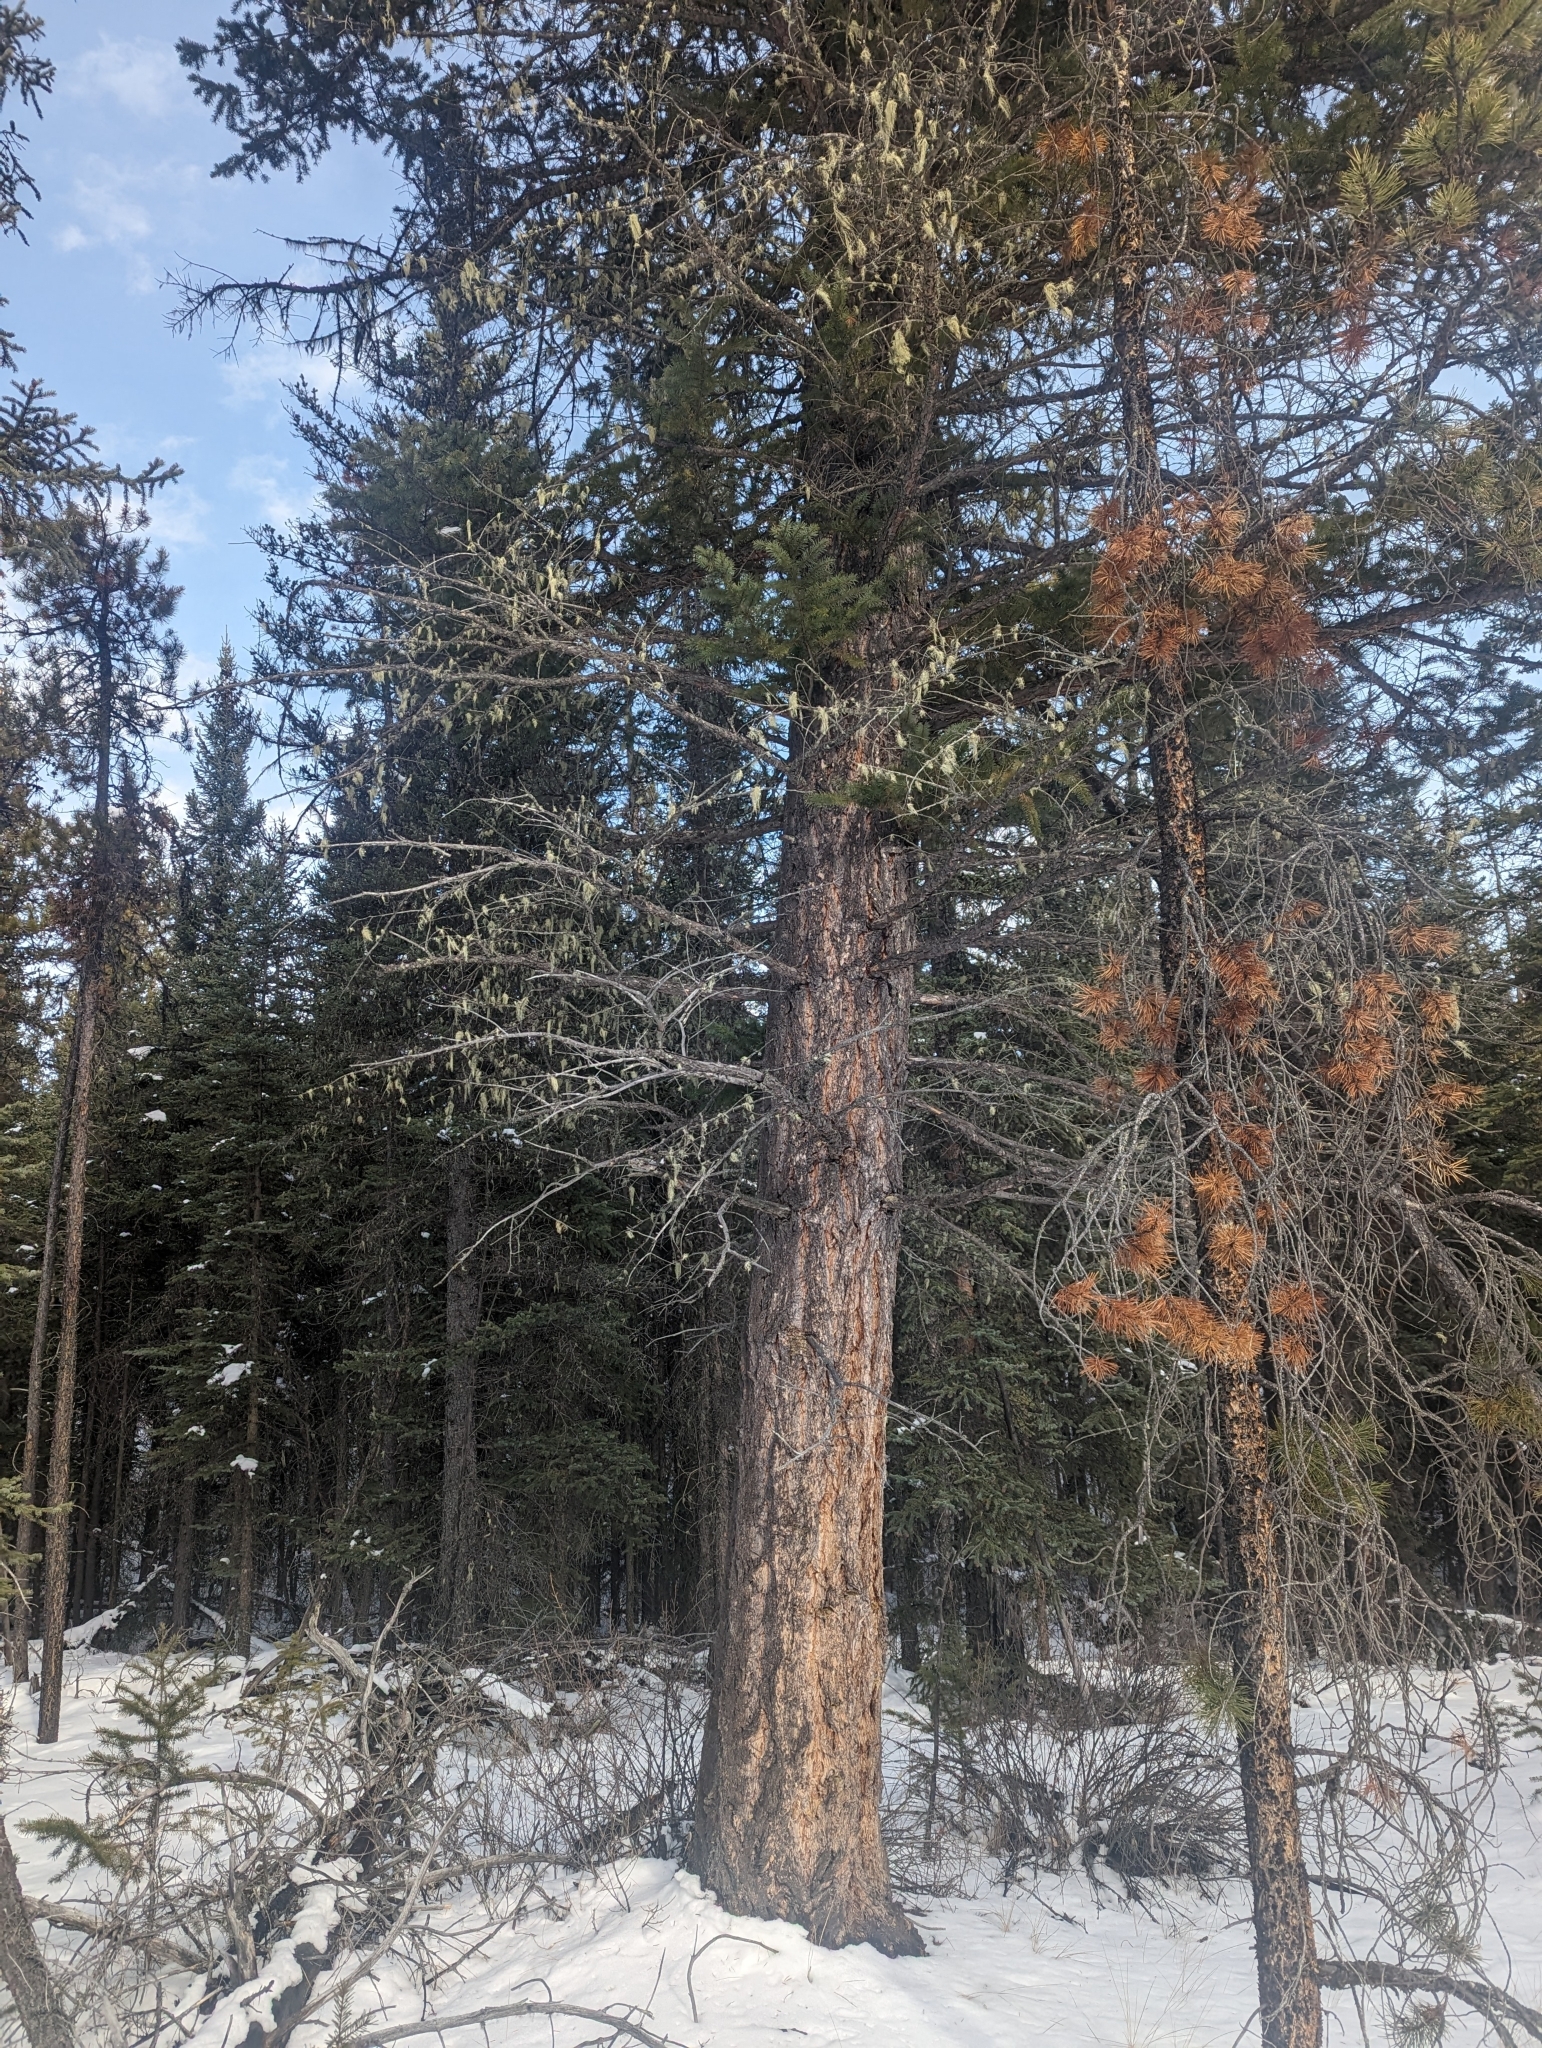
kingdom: Plantae
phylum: Tracheophyta
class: Pinopsida
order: Pinales
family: Pinaceae
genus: Pseudotsuga
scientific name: Pseudotsuga menziesii
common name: Douglas fir
